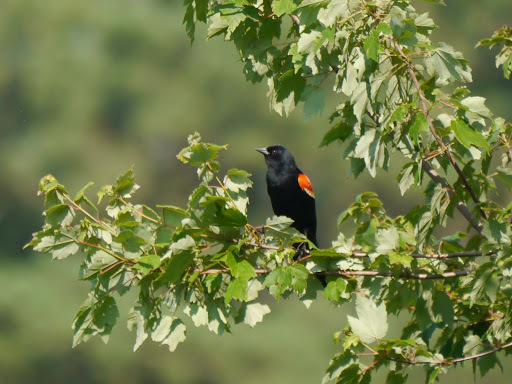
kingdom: Animalia
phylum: Chordata
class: Aves
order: Passeriformes
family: Icteridae
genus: Agelaius
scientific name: Agelaius phoeniceus
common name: Red-winged blackbird
